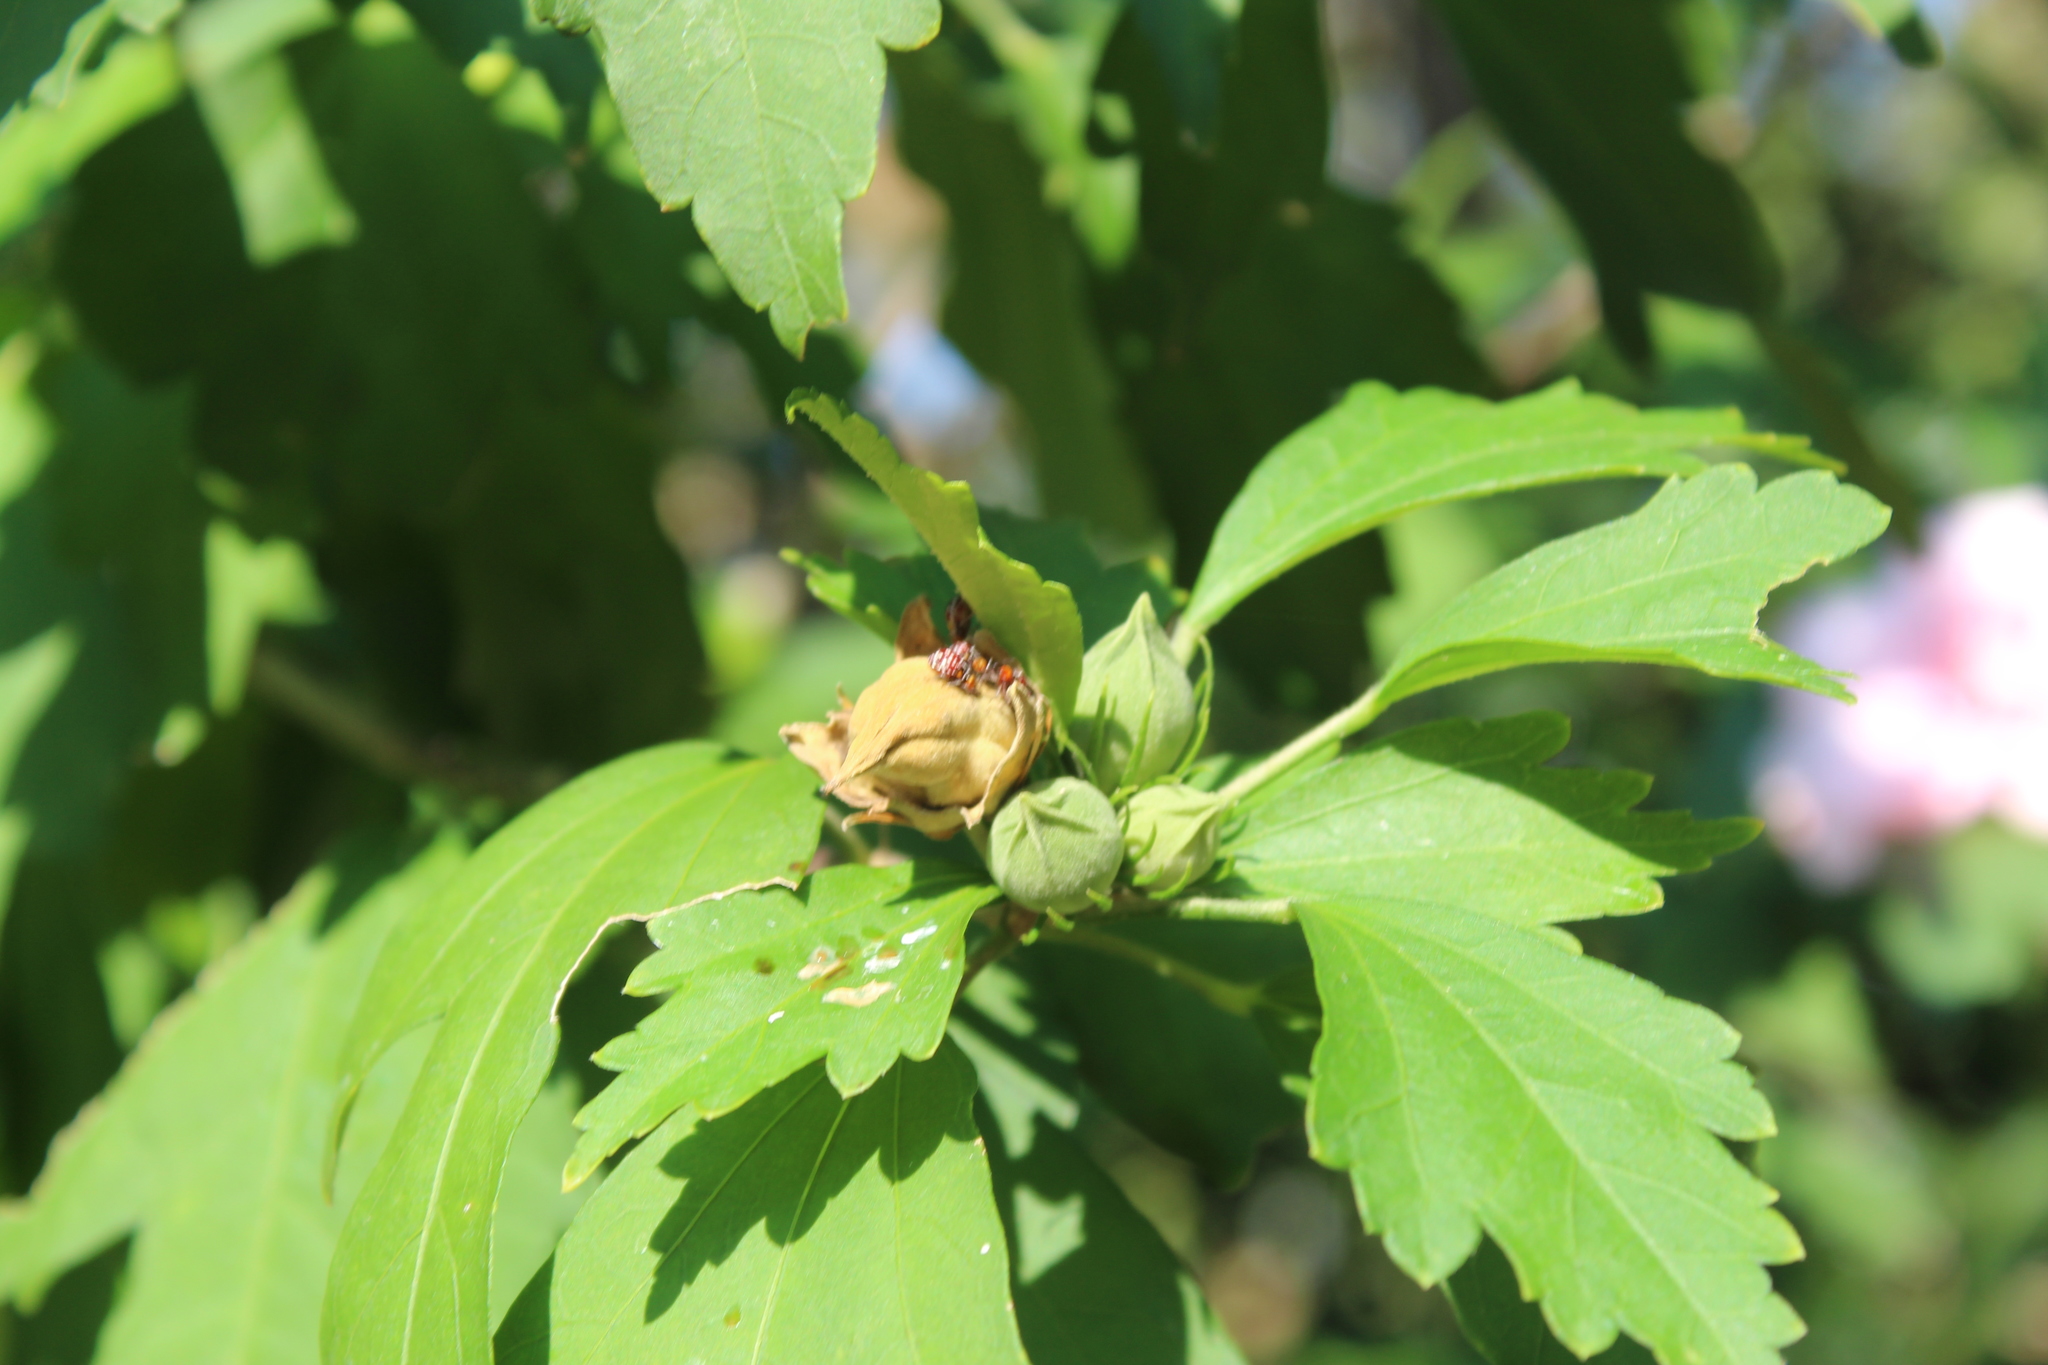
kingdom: Animalia
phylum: Arthropoda
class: Insecta
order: Hemiptera
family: Rhopalidae
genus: Niesthrea
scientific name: Niesthrea louisianica
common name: Scentless plant bug
